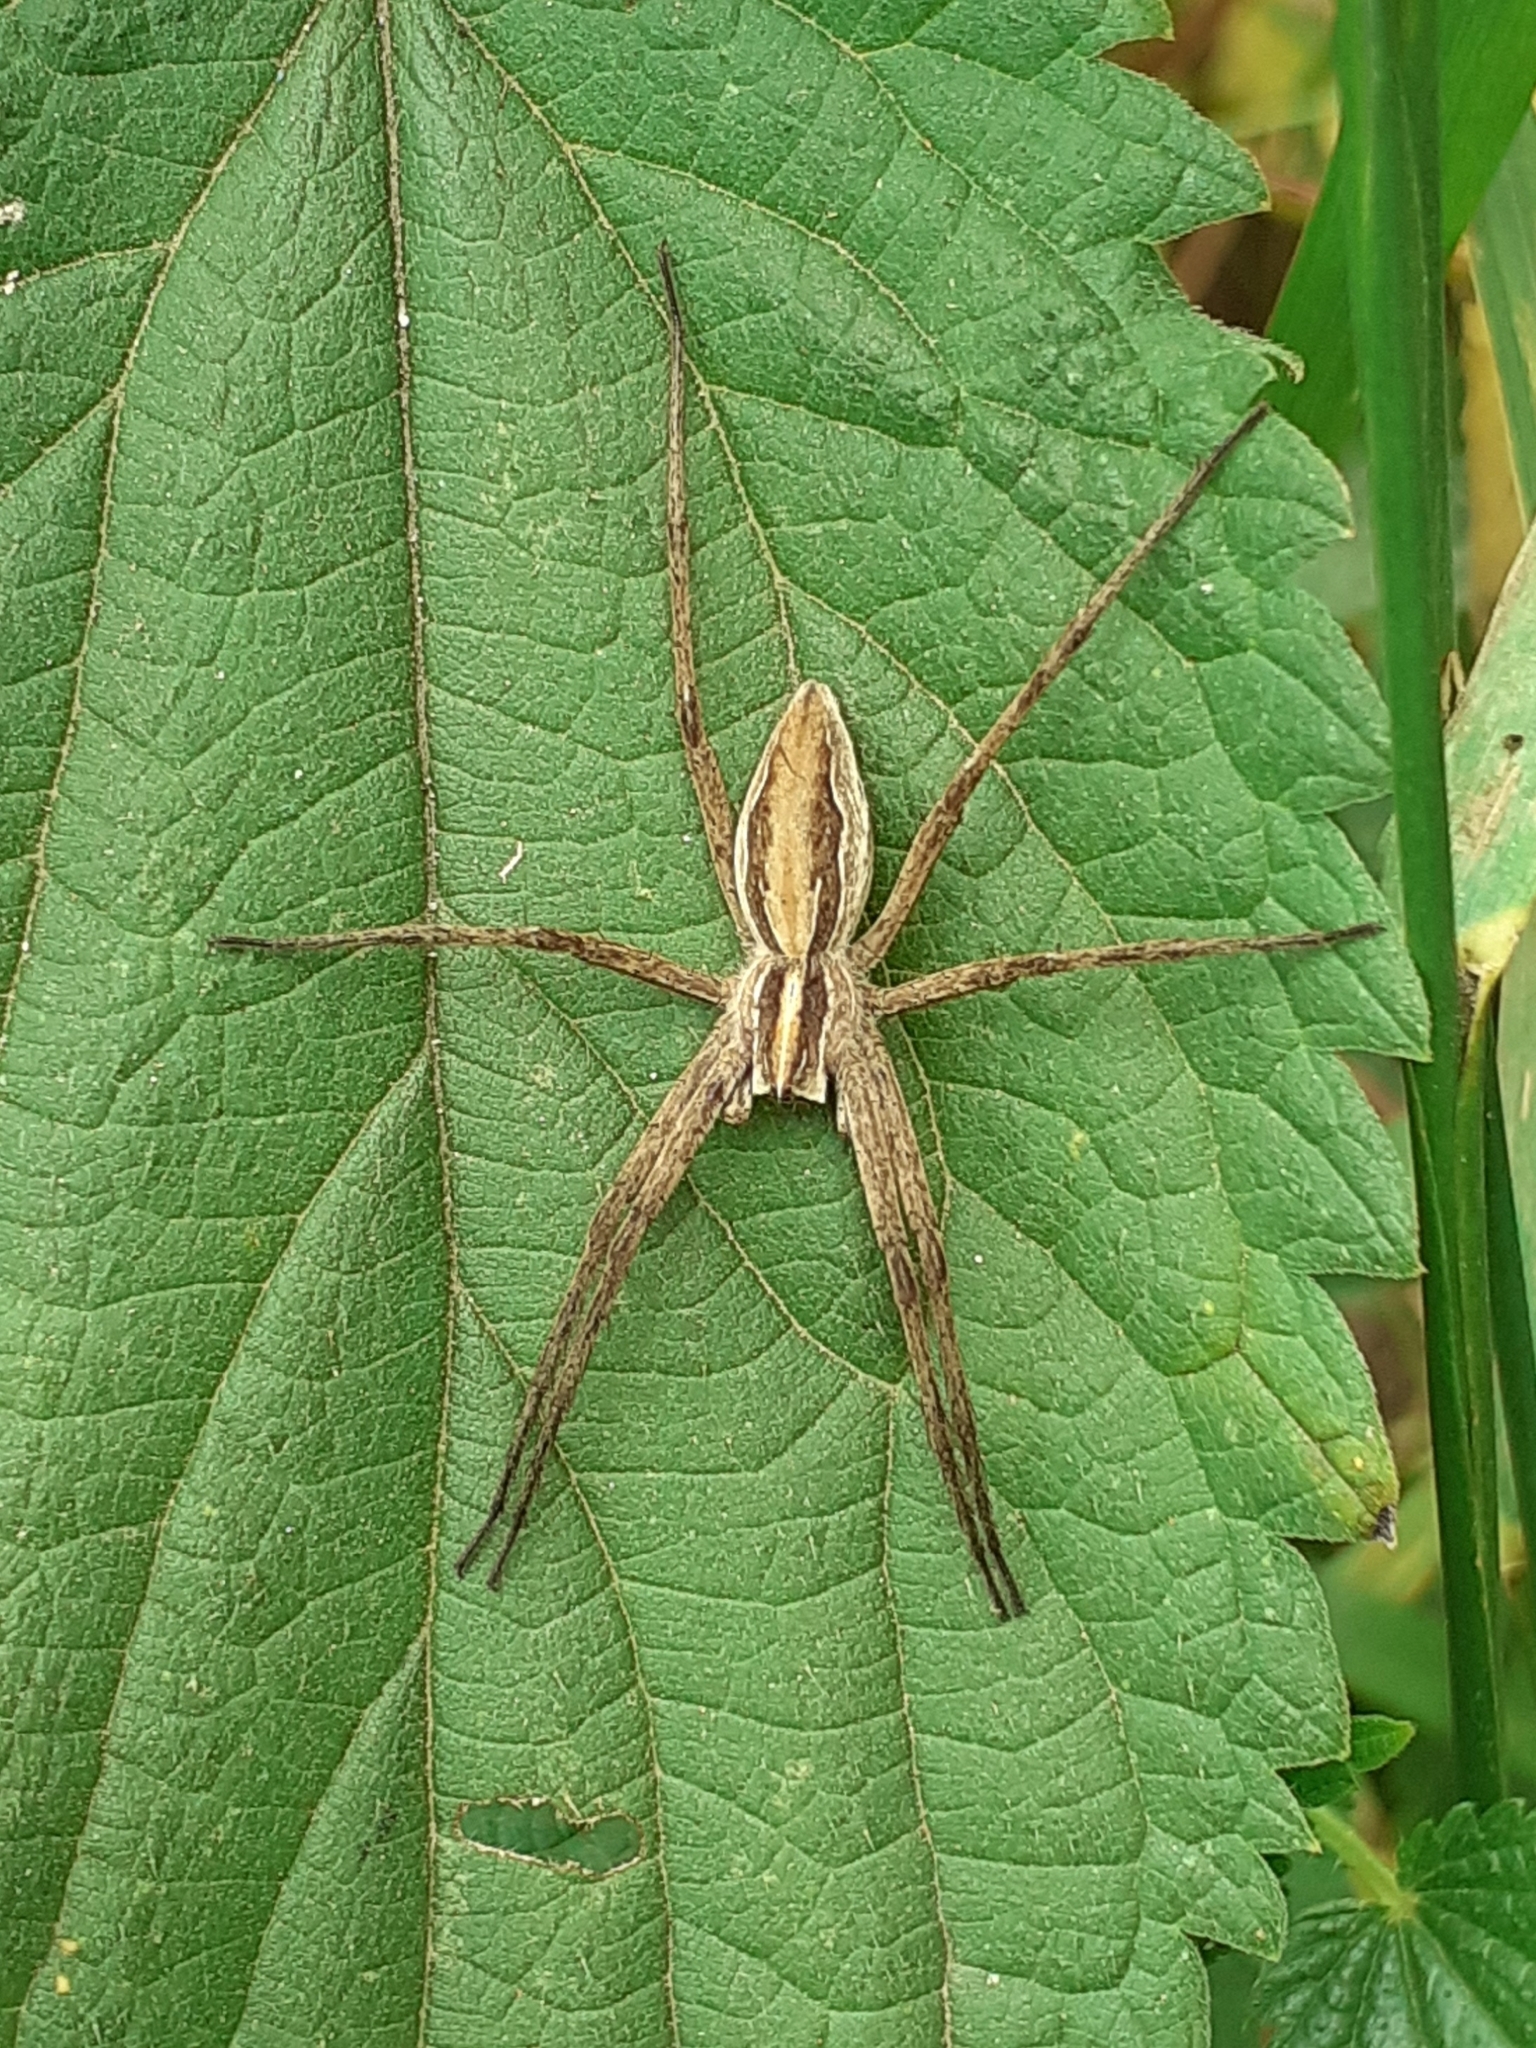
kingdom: Animalia
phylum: Arthropoda
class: Arachnida
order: Araneae
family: Pisauridae
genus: Pisaura
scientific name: Pisaura mirabilis
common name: Tent spider
